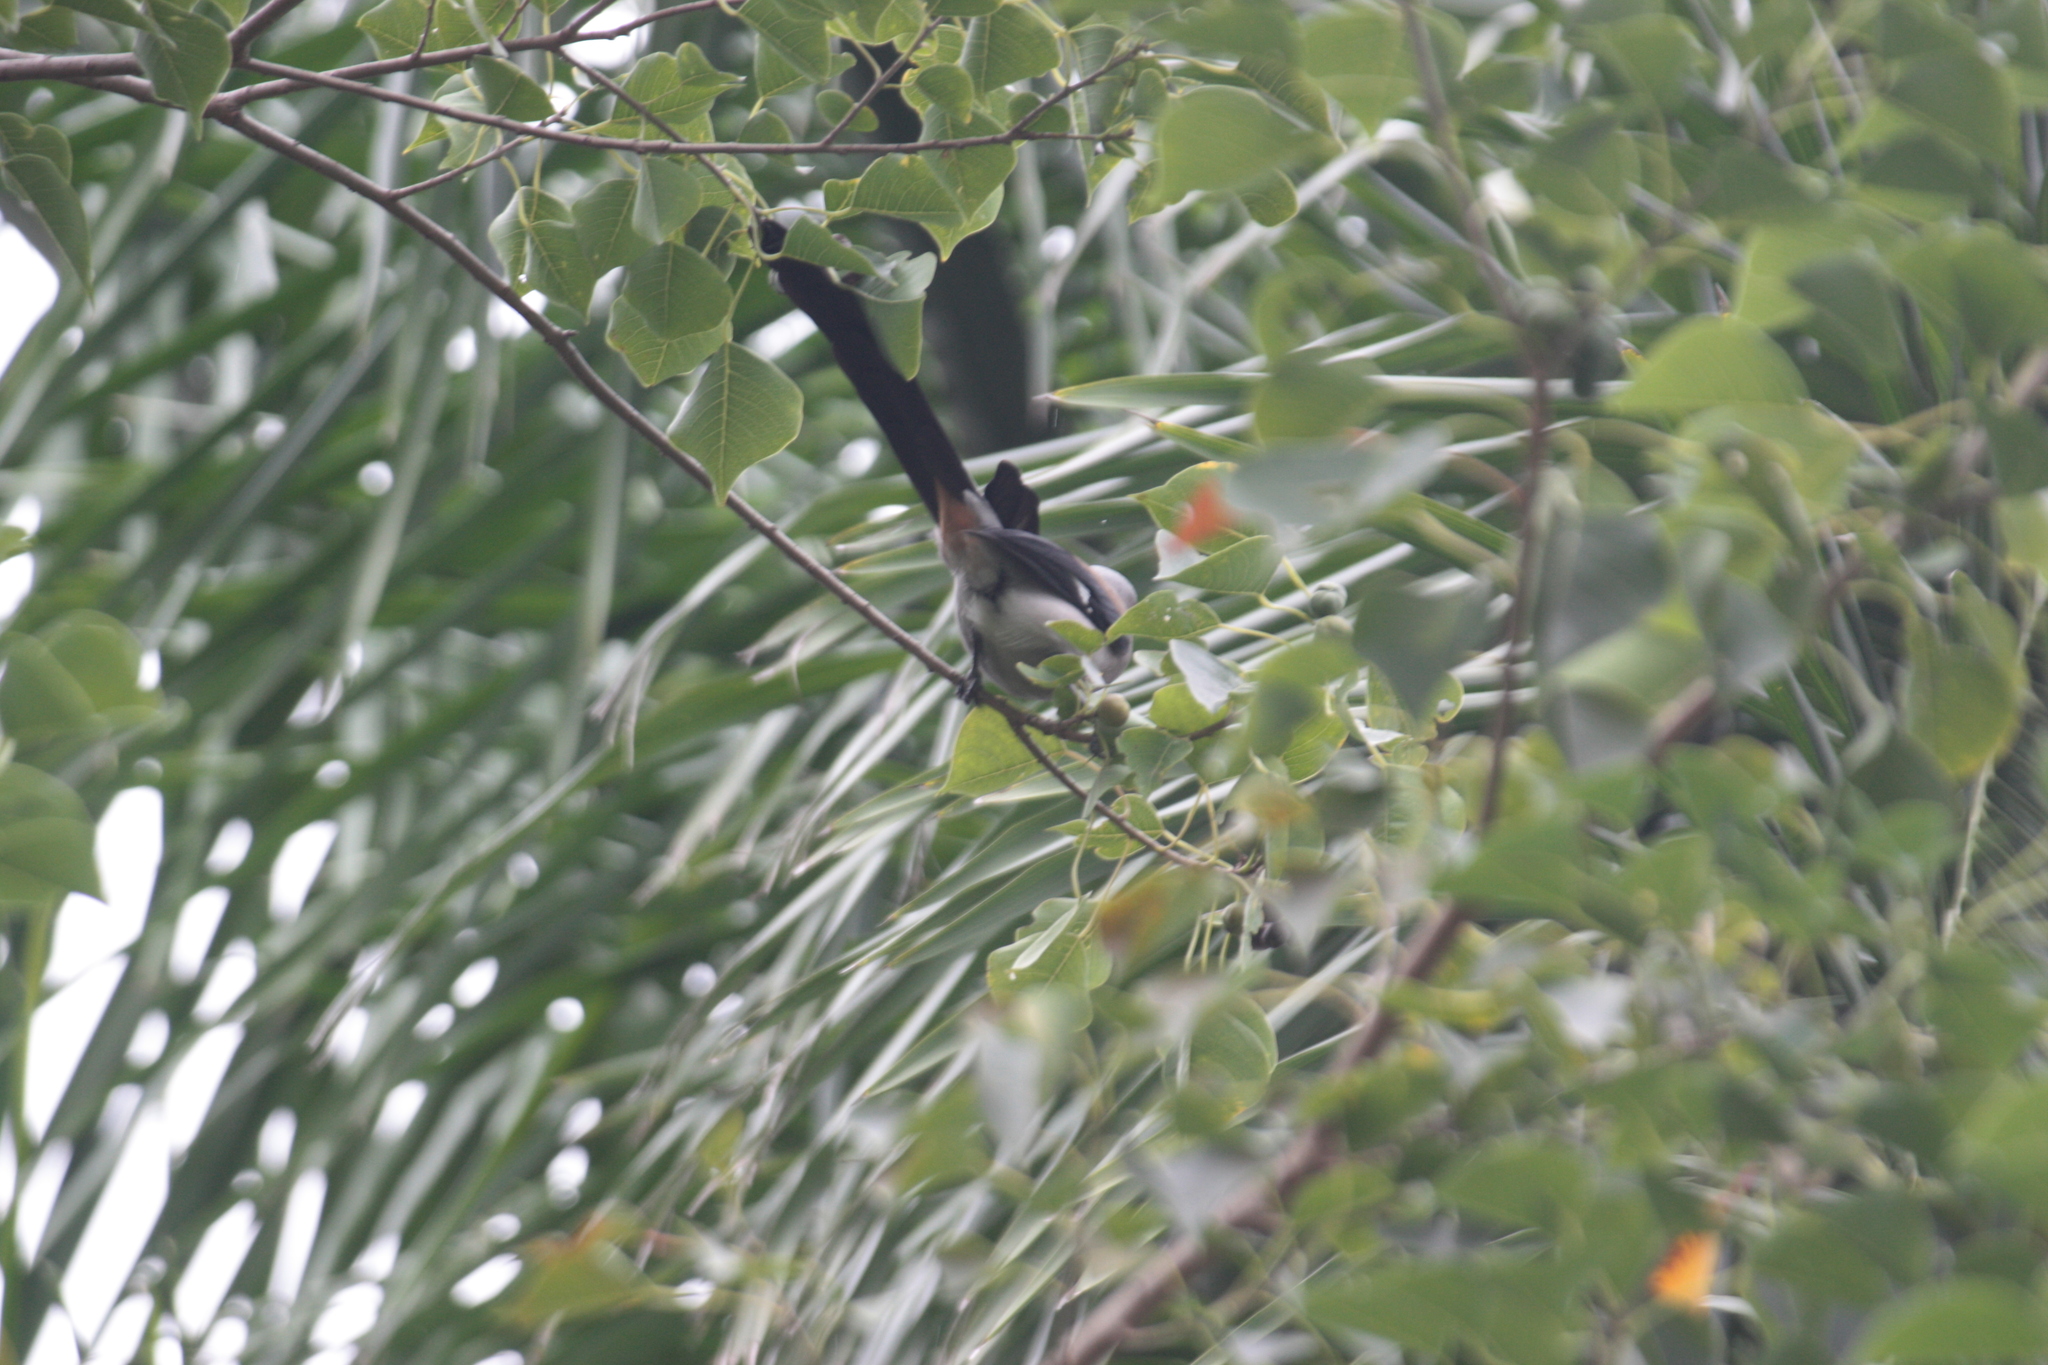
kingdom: Animalia
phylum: Chordata
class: Aves
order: Passeriformes
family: Corvidae
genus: Dendrocitta
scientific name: Dendrocitta formosae
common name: Grey treepie
